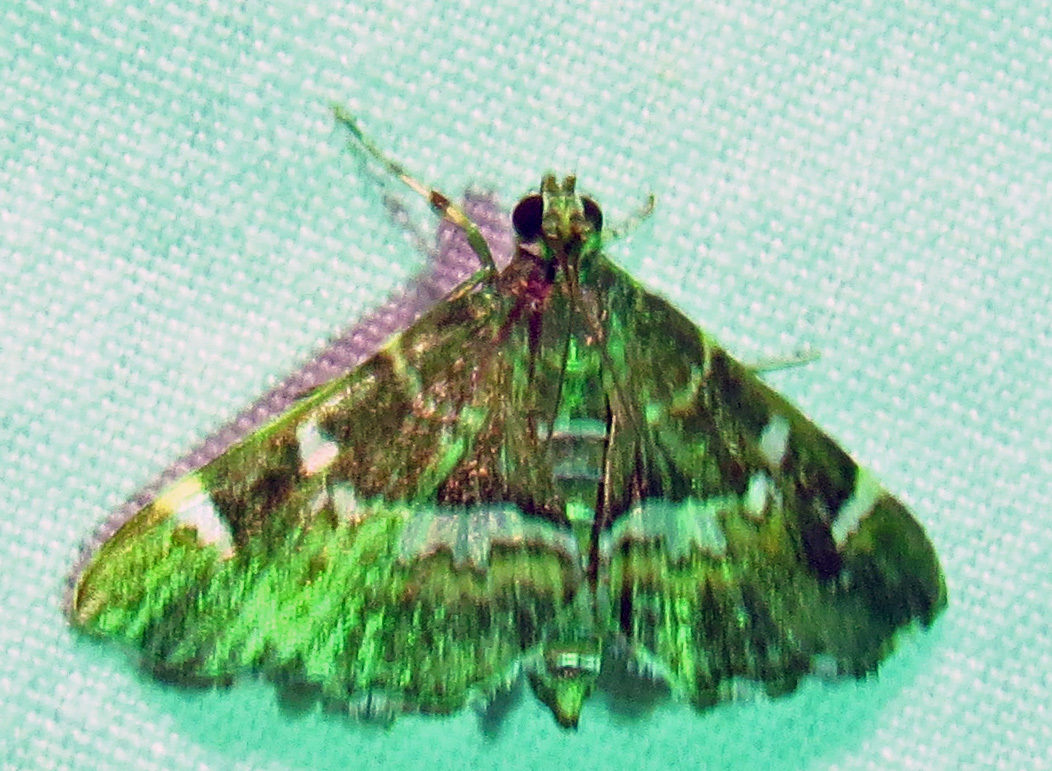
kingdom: Animalia
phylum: Arthropoda
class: Insecta
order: Lepidoptera
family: Crambidae
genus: Hymenia
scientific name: Hymenia perspectalis
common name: Spotted beet webworm
